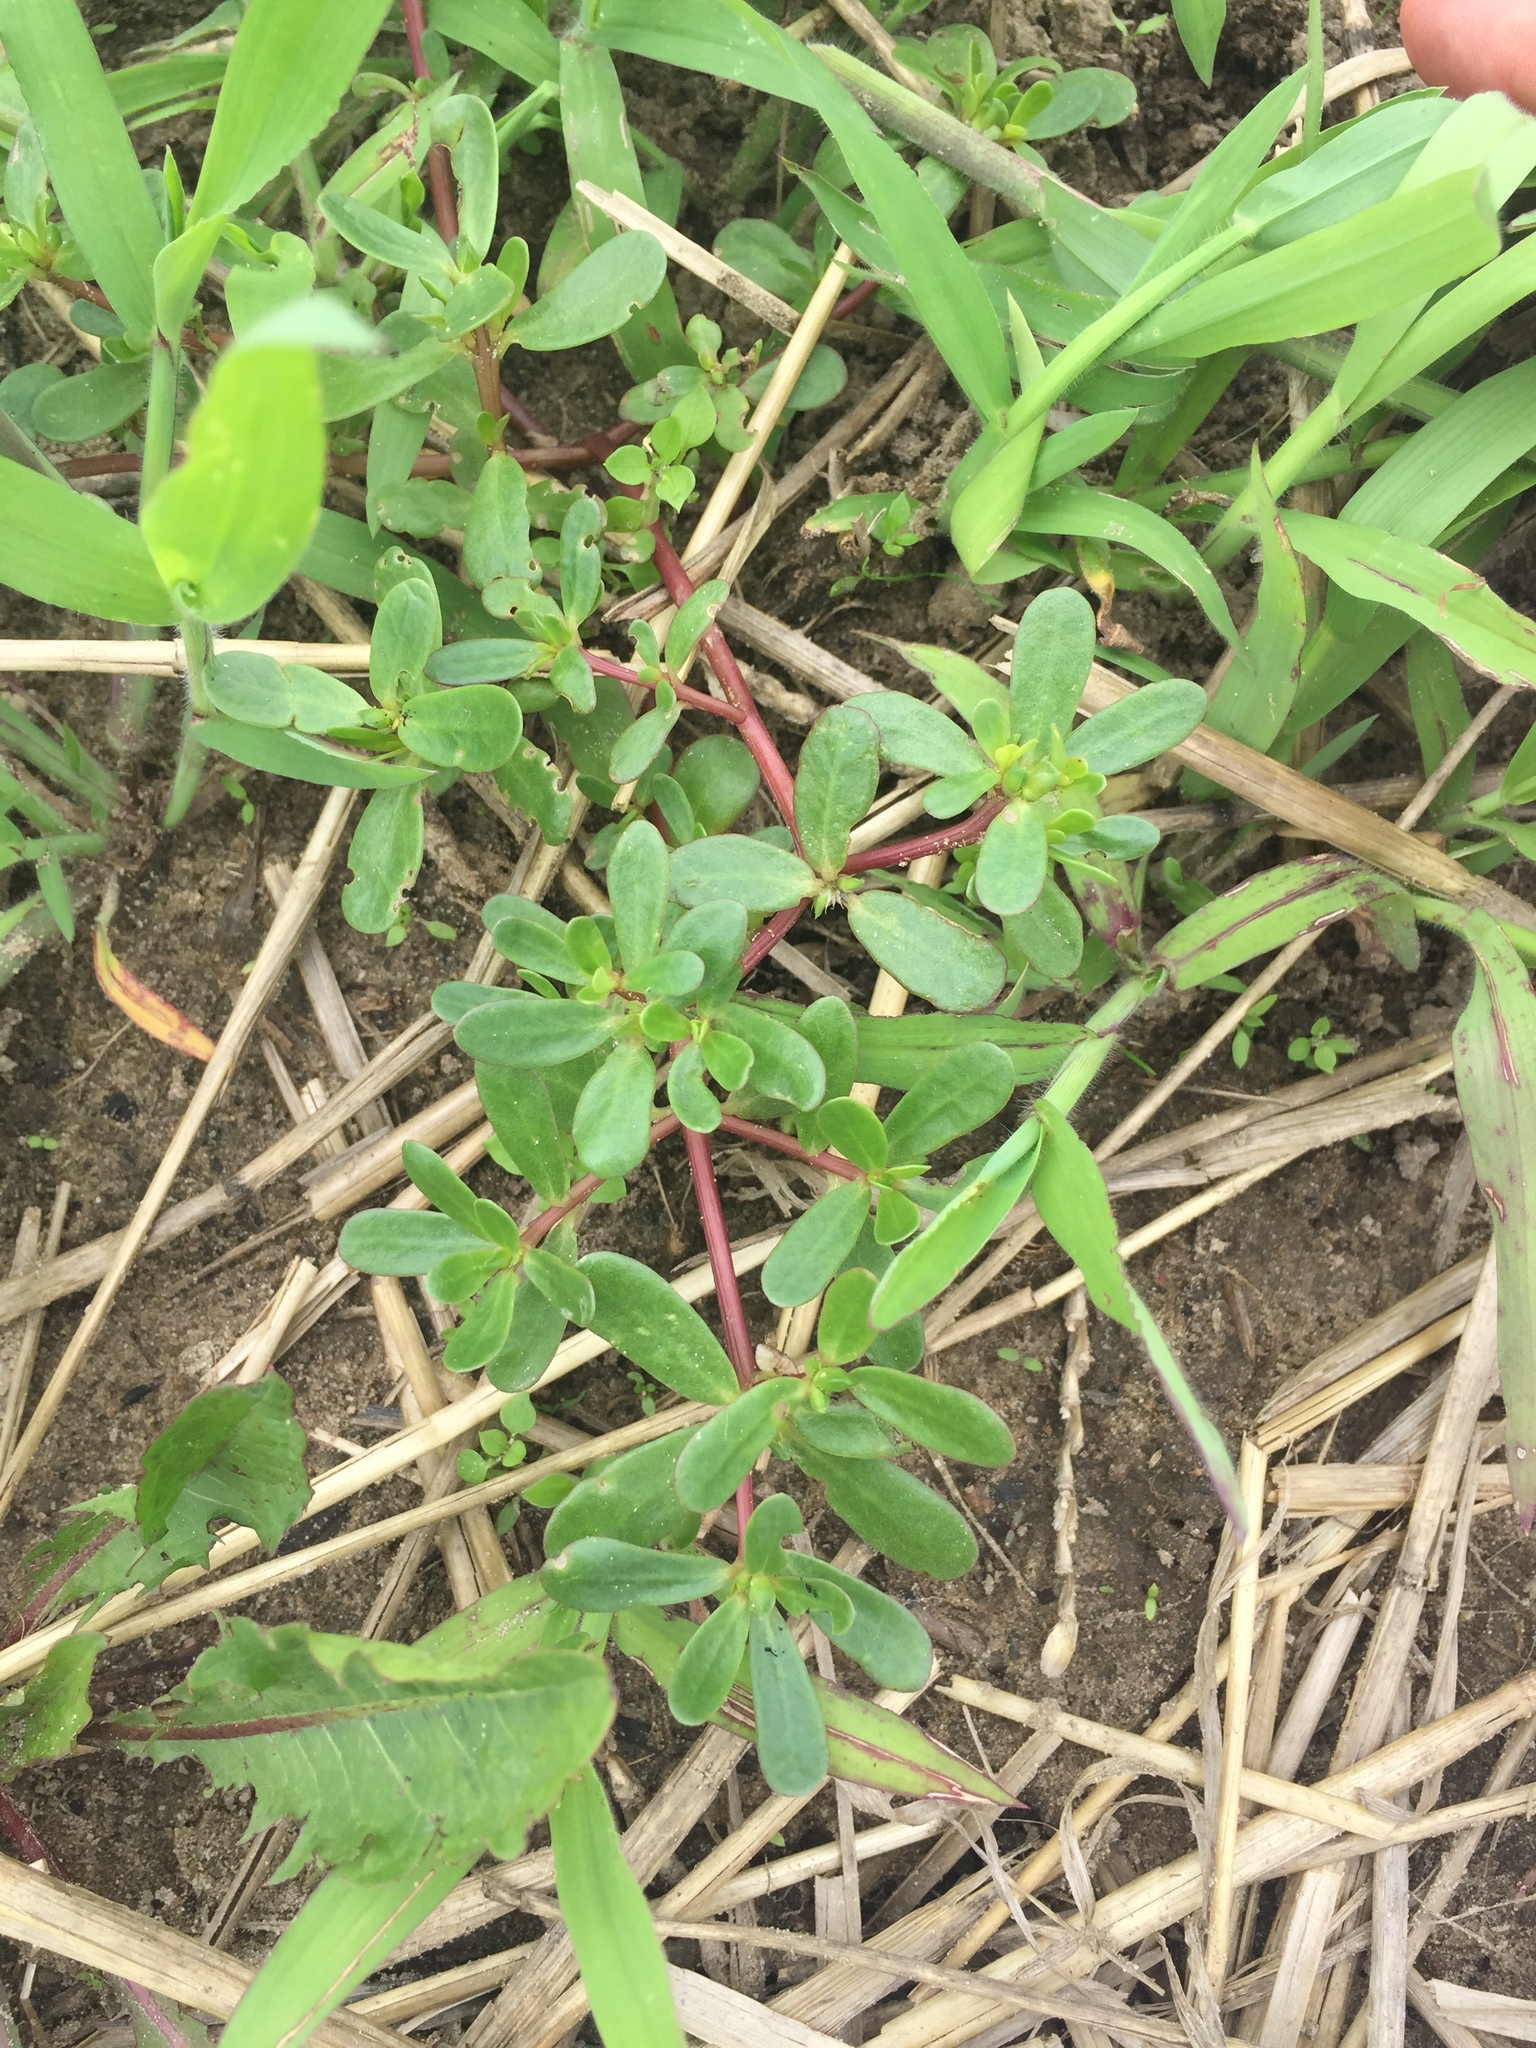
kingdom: Plantae
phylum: Tracheophyta
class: Magnoliopsida
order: Caryophyllales
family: Portulacaceae
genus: Portulaca
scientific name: Portulaca oleracea
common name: Common purslane
